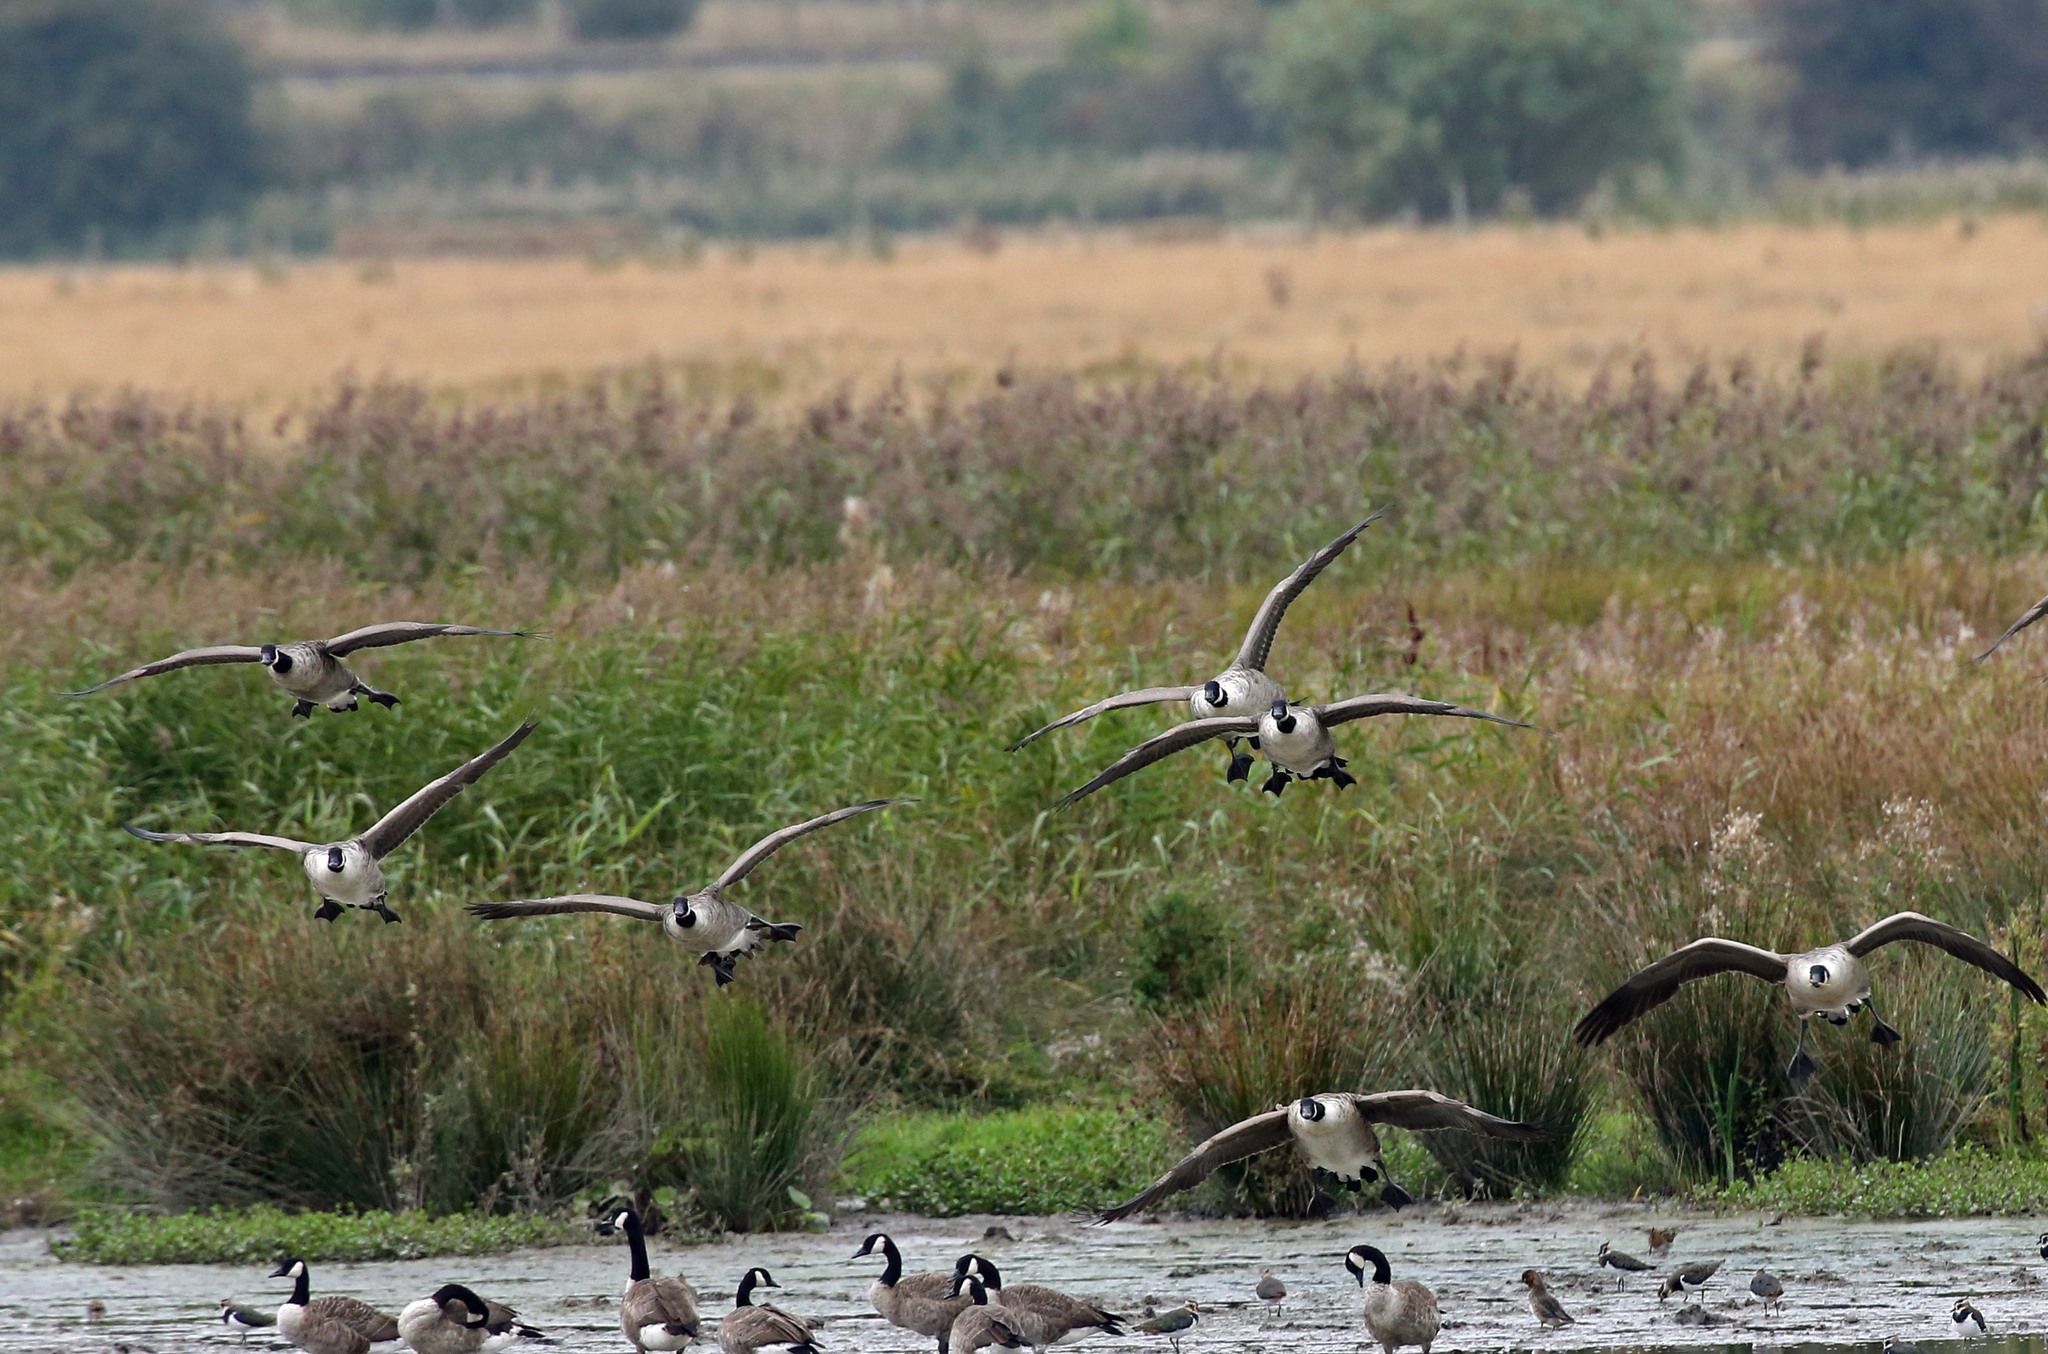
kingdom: Animalia
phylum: Chordata
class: Aves
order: Anseriformes
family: Anatidae
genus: Branta
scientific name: Branta canadensis
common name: Canada goose
